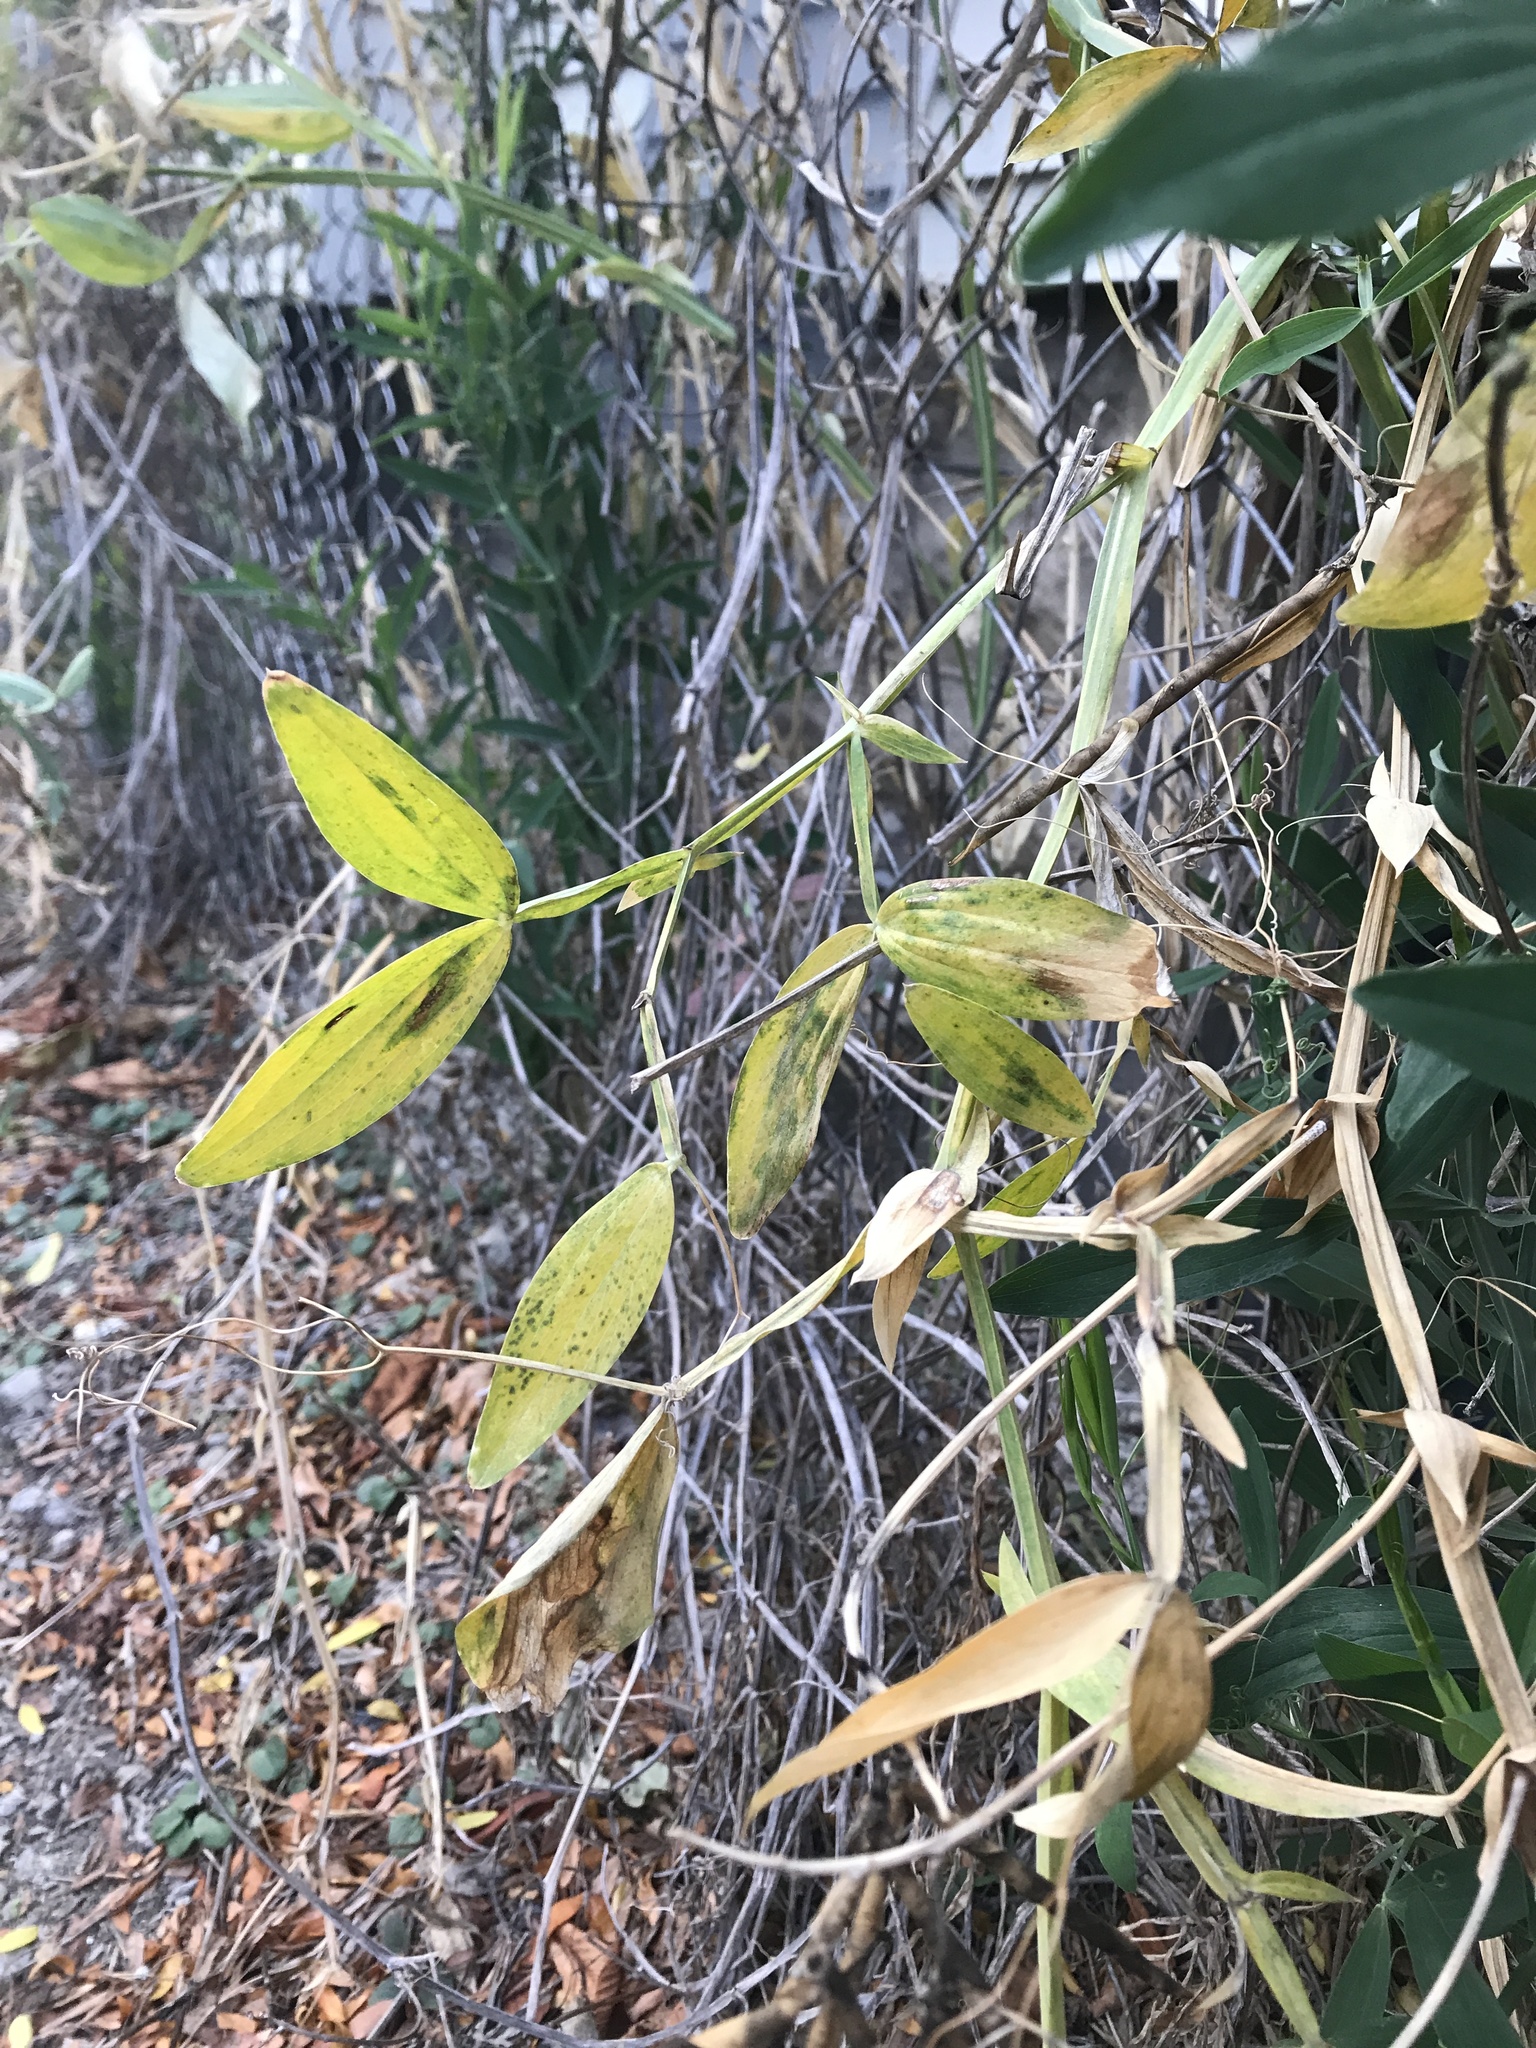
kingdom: Plantae
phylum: Tracheophyta
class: Magnoliopsida
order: Fabales
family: Fabaceae
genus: Lathyrus
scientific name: Lathyrus latifolius
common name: Perennial pea
